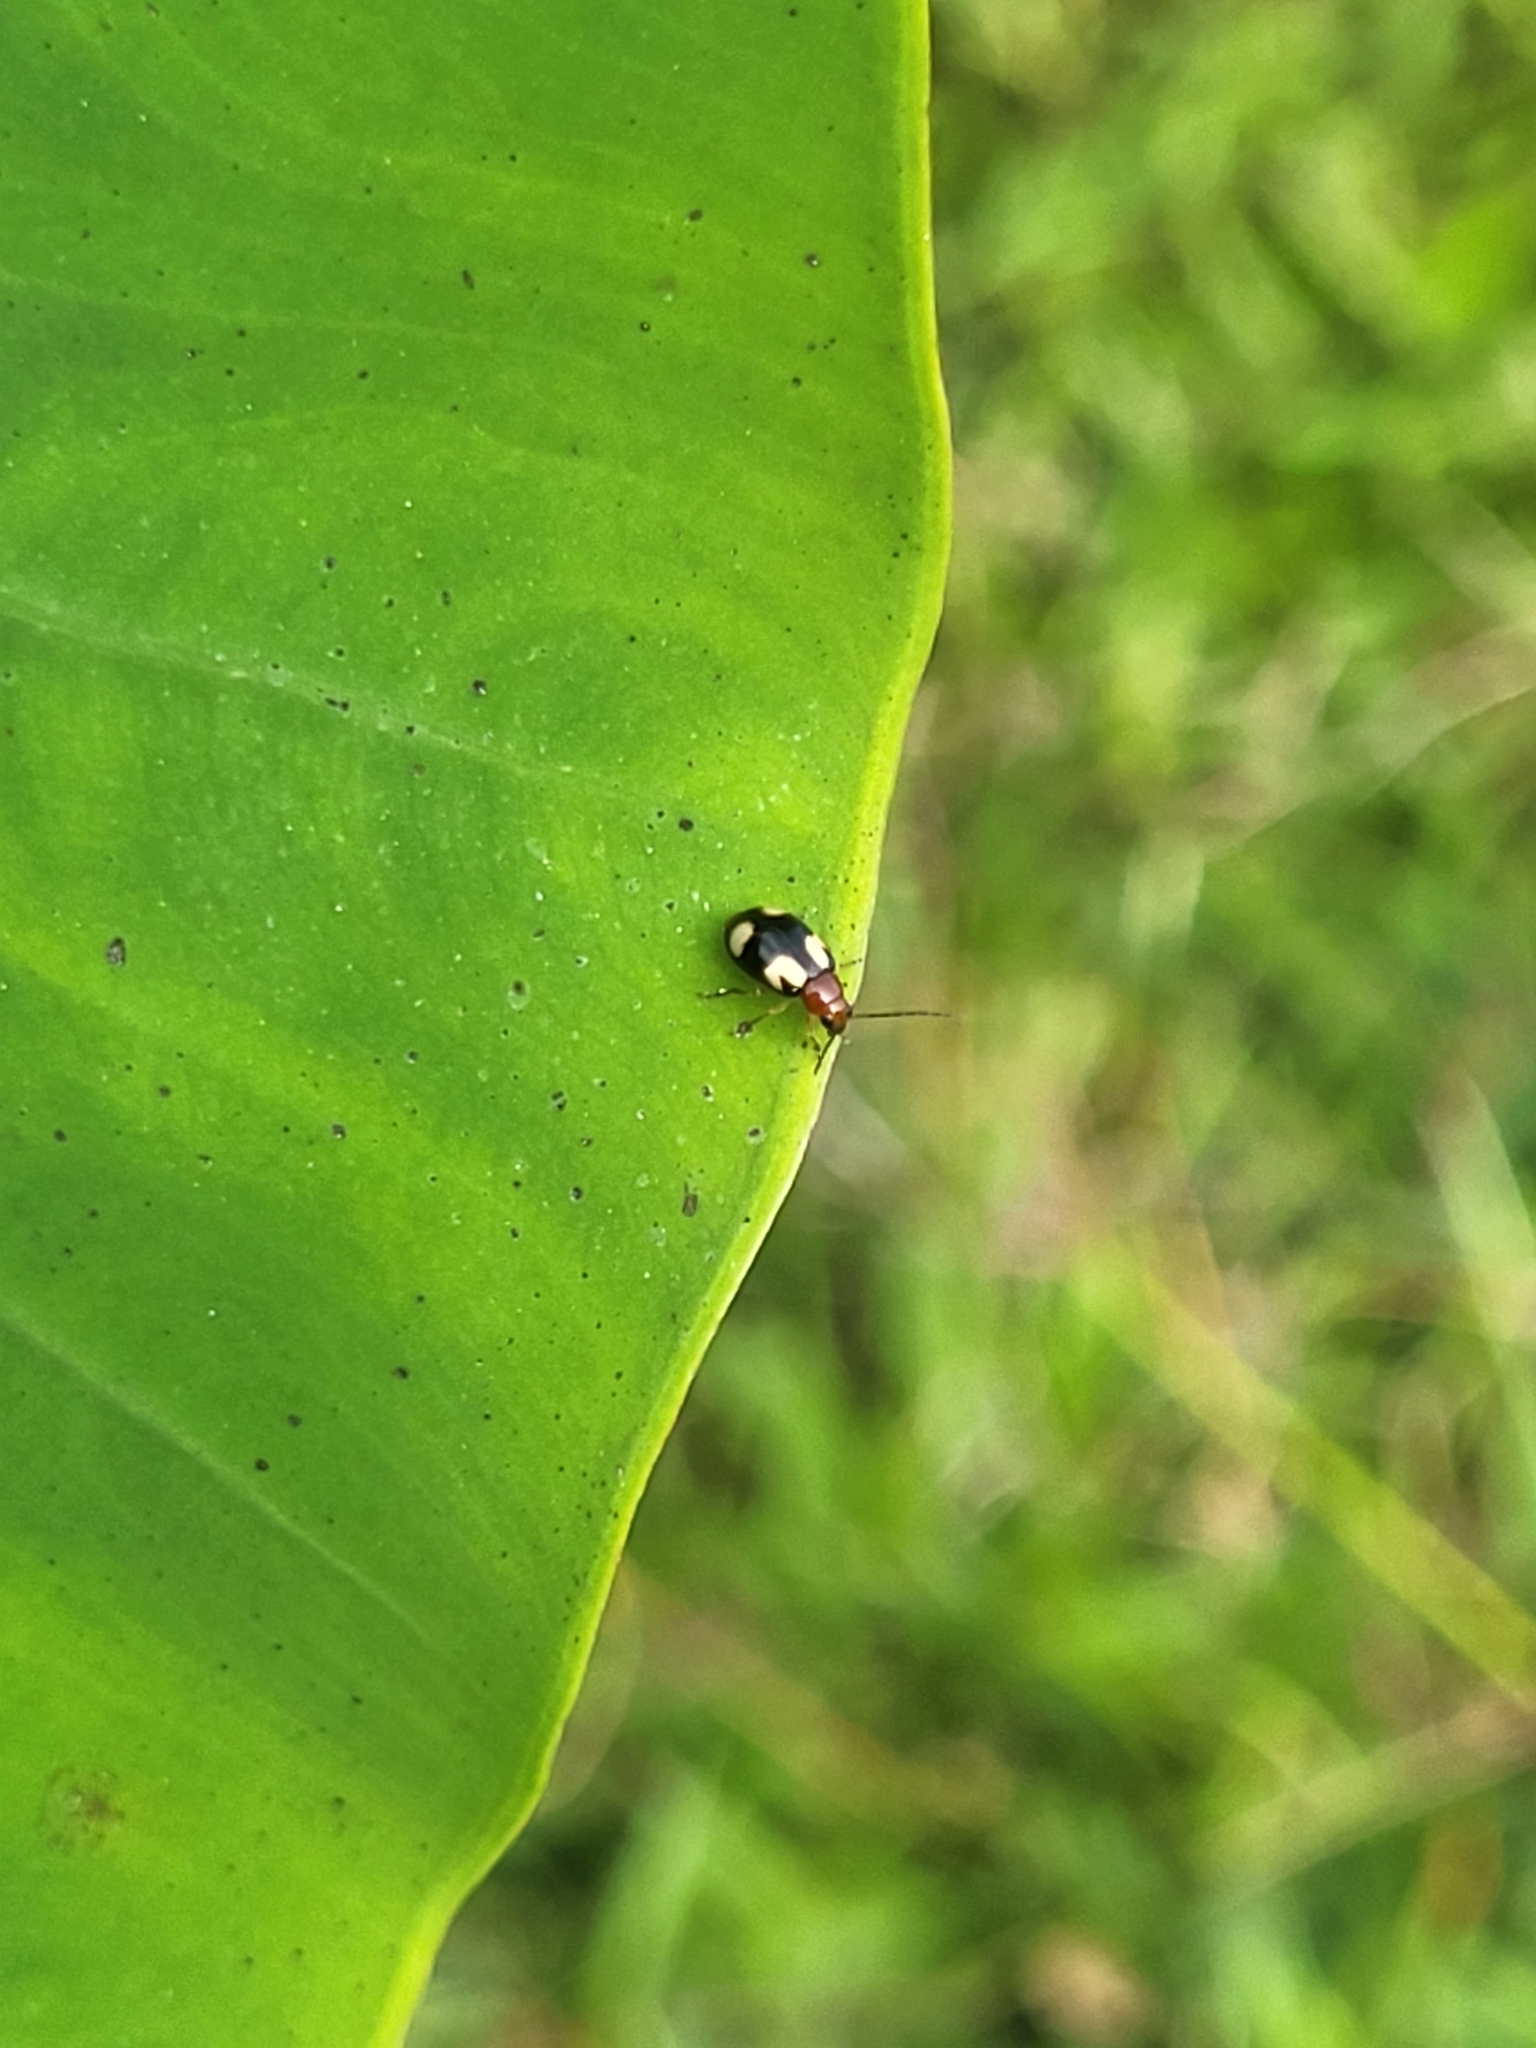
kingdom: Animalia
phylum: Arthropoda
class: Insecta
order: Coleoptera
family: Chrysomelidae
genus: Monolepta
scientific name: Monolepta signata
